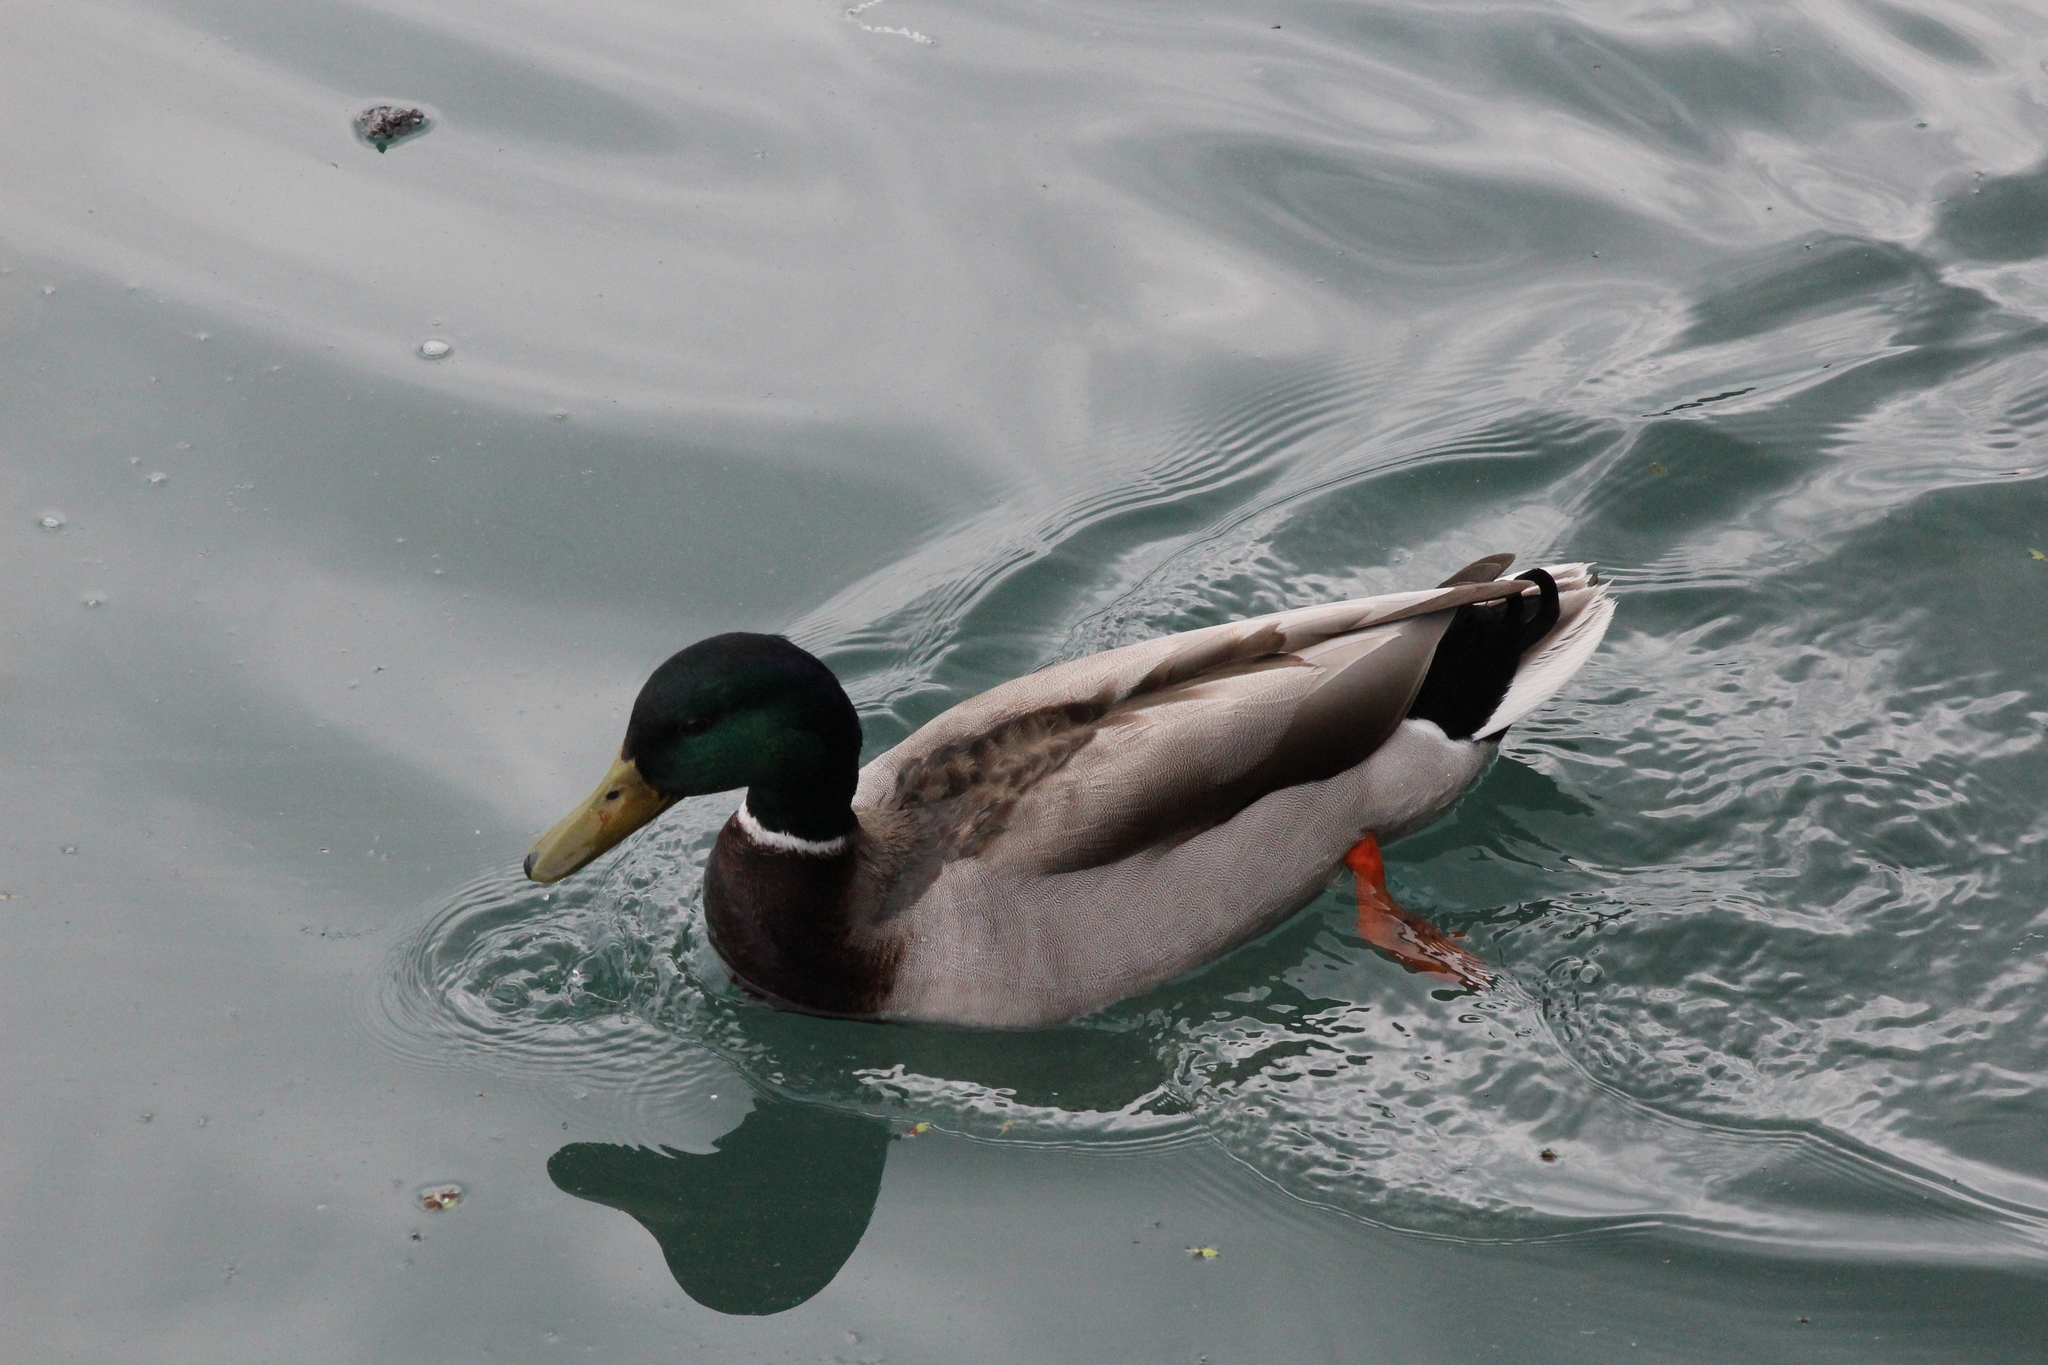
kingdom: Animalia
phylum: Chordata
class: Aves
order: Anseriformes
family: Anatidae
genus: Anas
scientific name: Anas platyrhynchos
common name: Mallard
